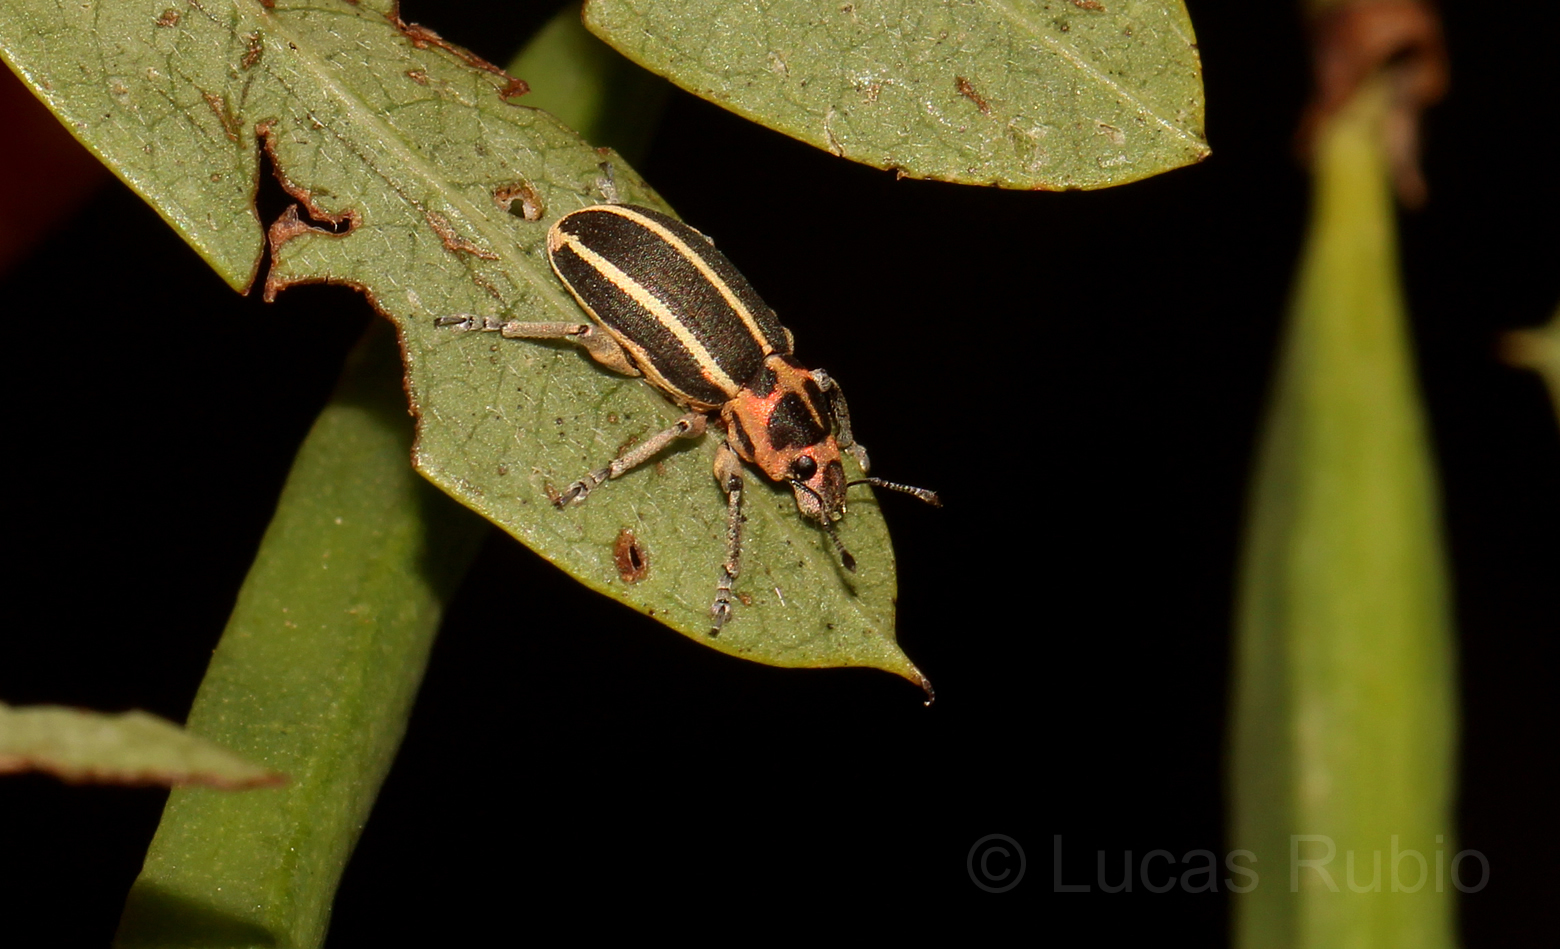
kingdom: Animalia
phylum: Arthropoda
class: Insecta
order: Coleoptera
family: Curculionidae
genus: Eudiagogus
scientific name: Eudiagogus episcopalis
